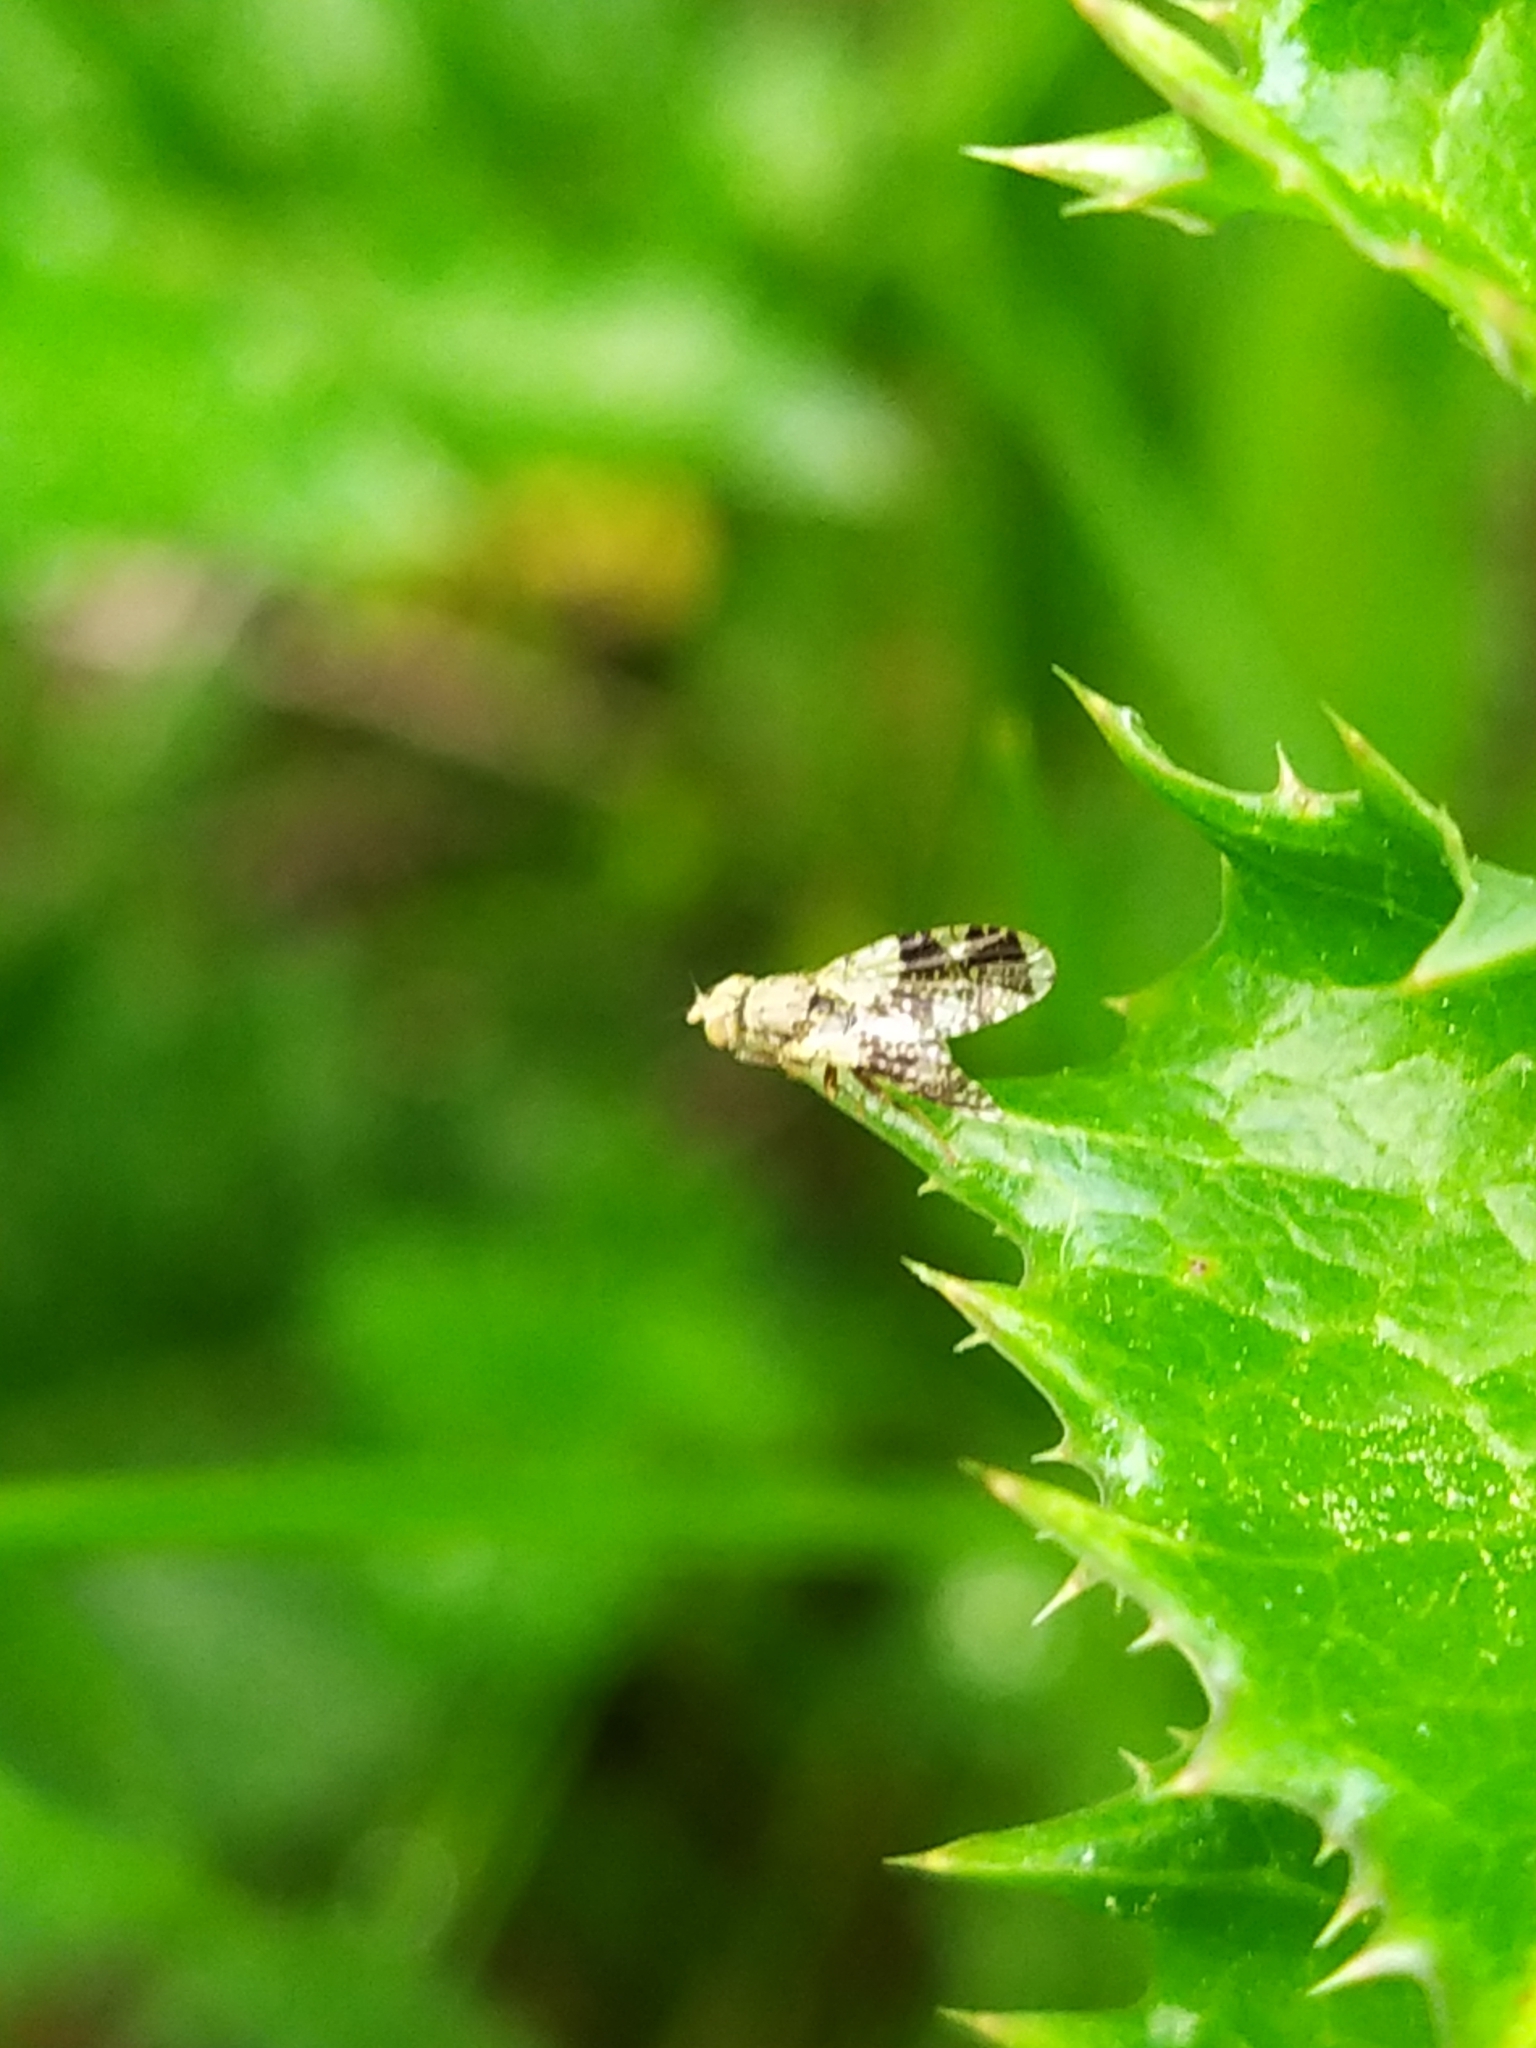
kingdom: Animalia
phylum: Arthropoda
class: Insecta
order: Diptera
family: Tephritidae
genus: Tephritis
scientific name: Tephritis formosa
